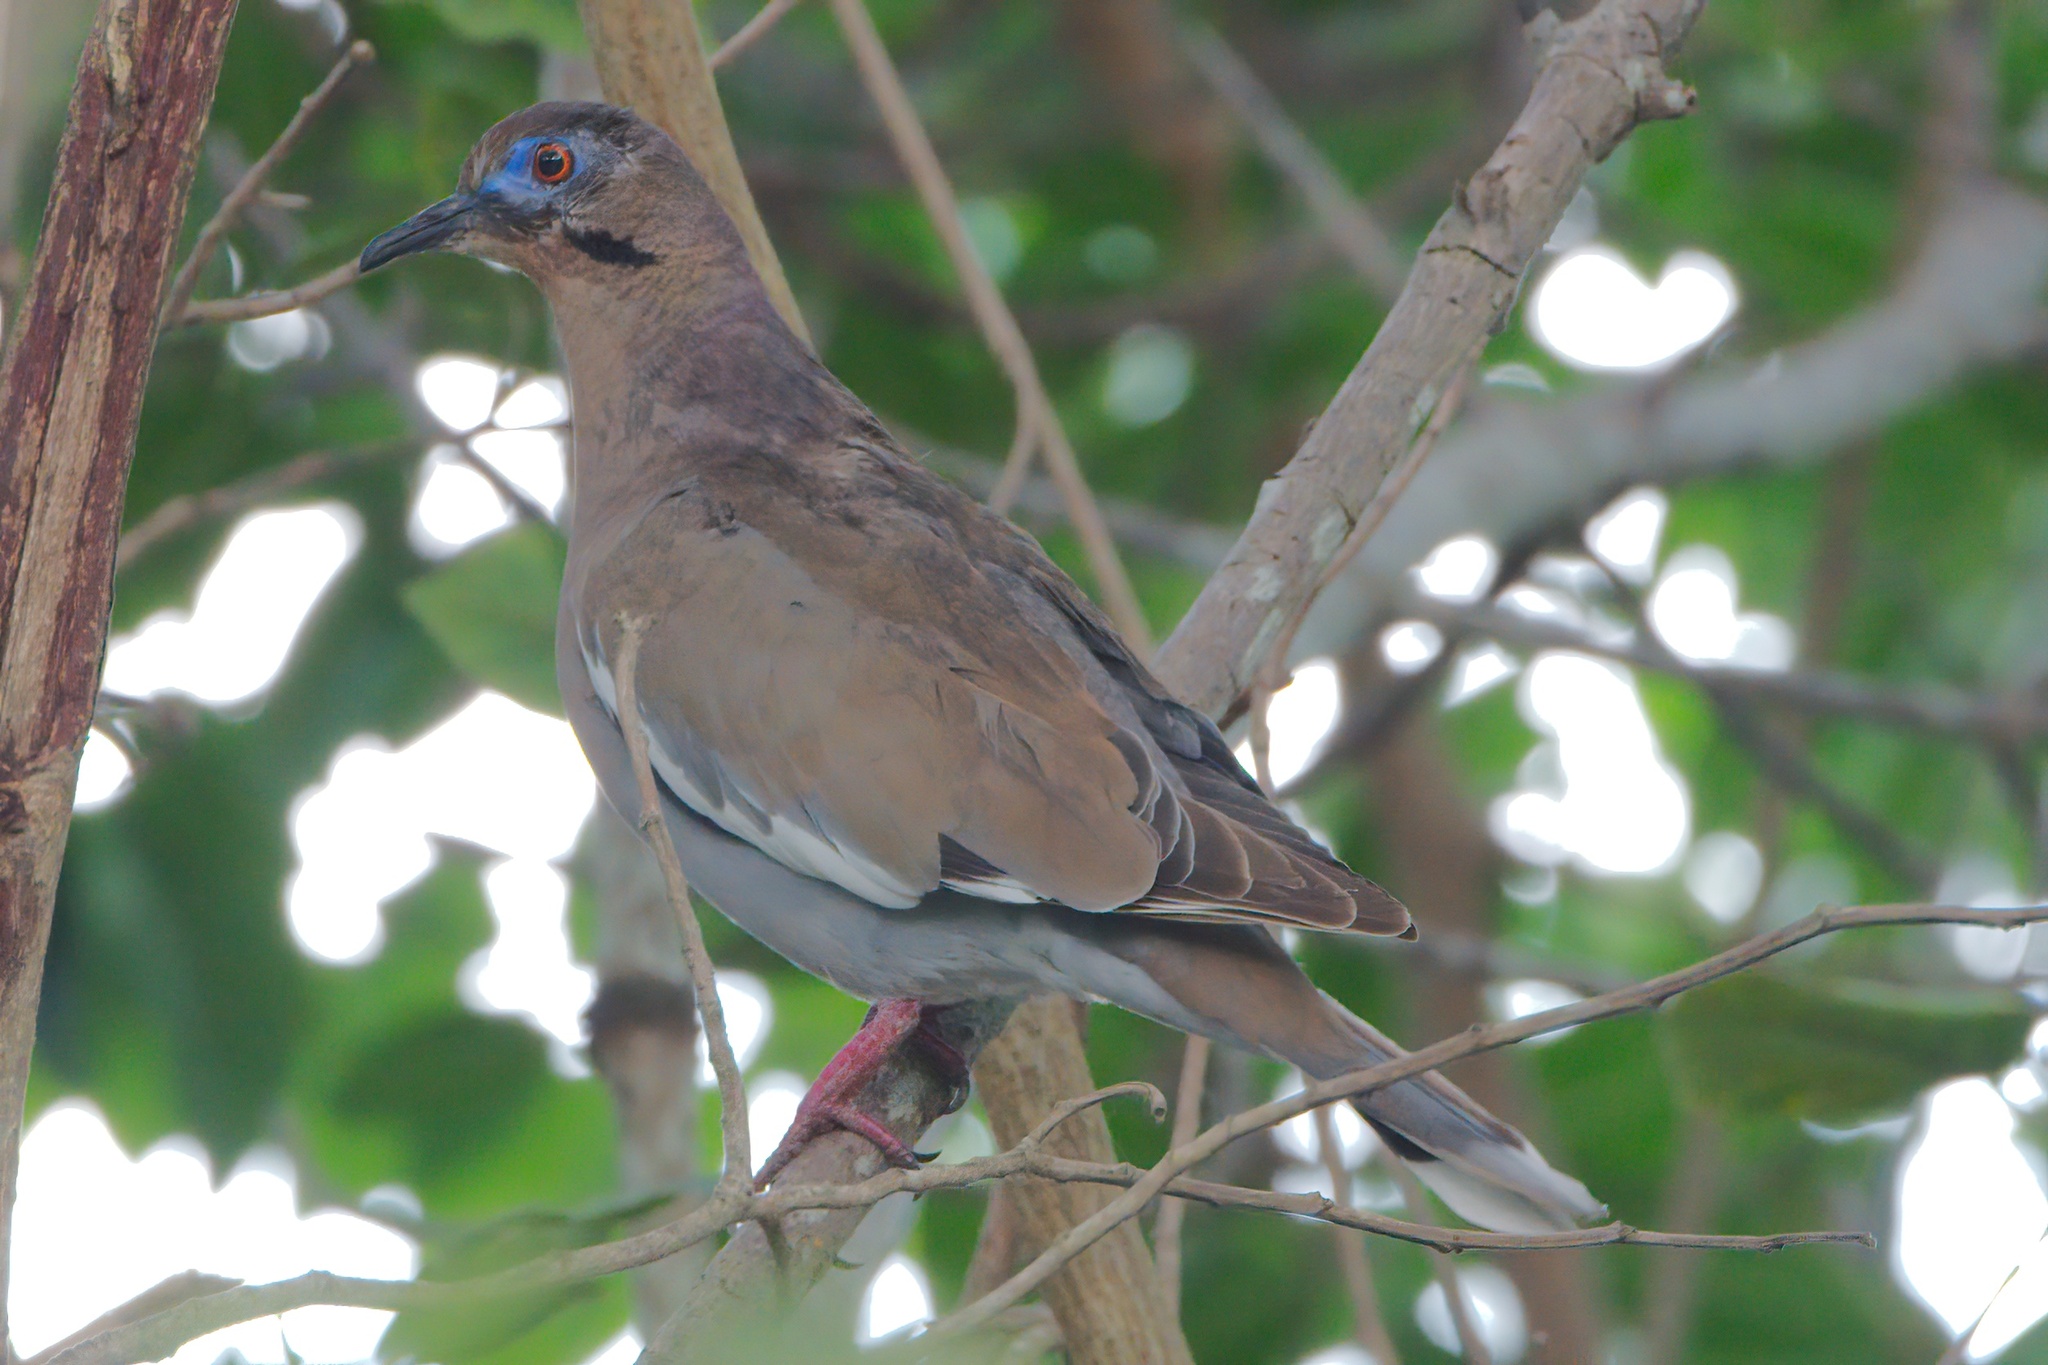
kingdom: Animalia
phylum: Chordata
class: Aves
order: Columbiformes
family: Columbidae
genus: Zenaida
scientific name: Zenaida asiatica
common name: White-winged dove
